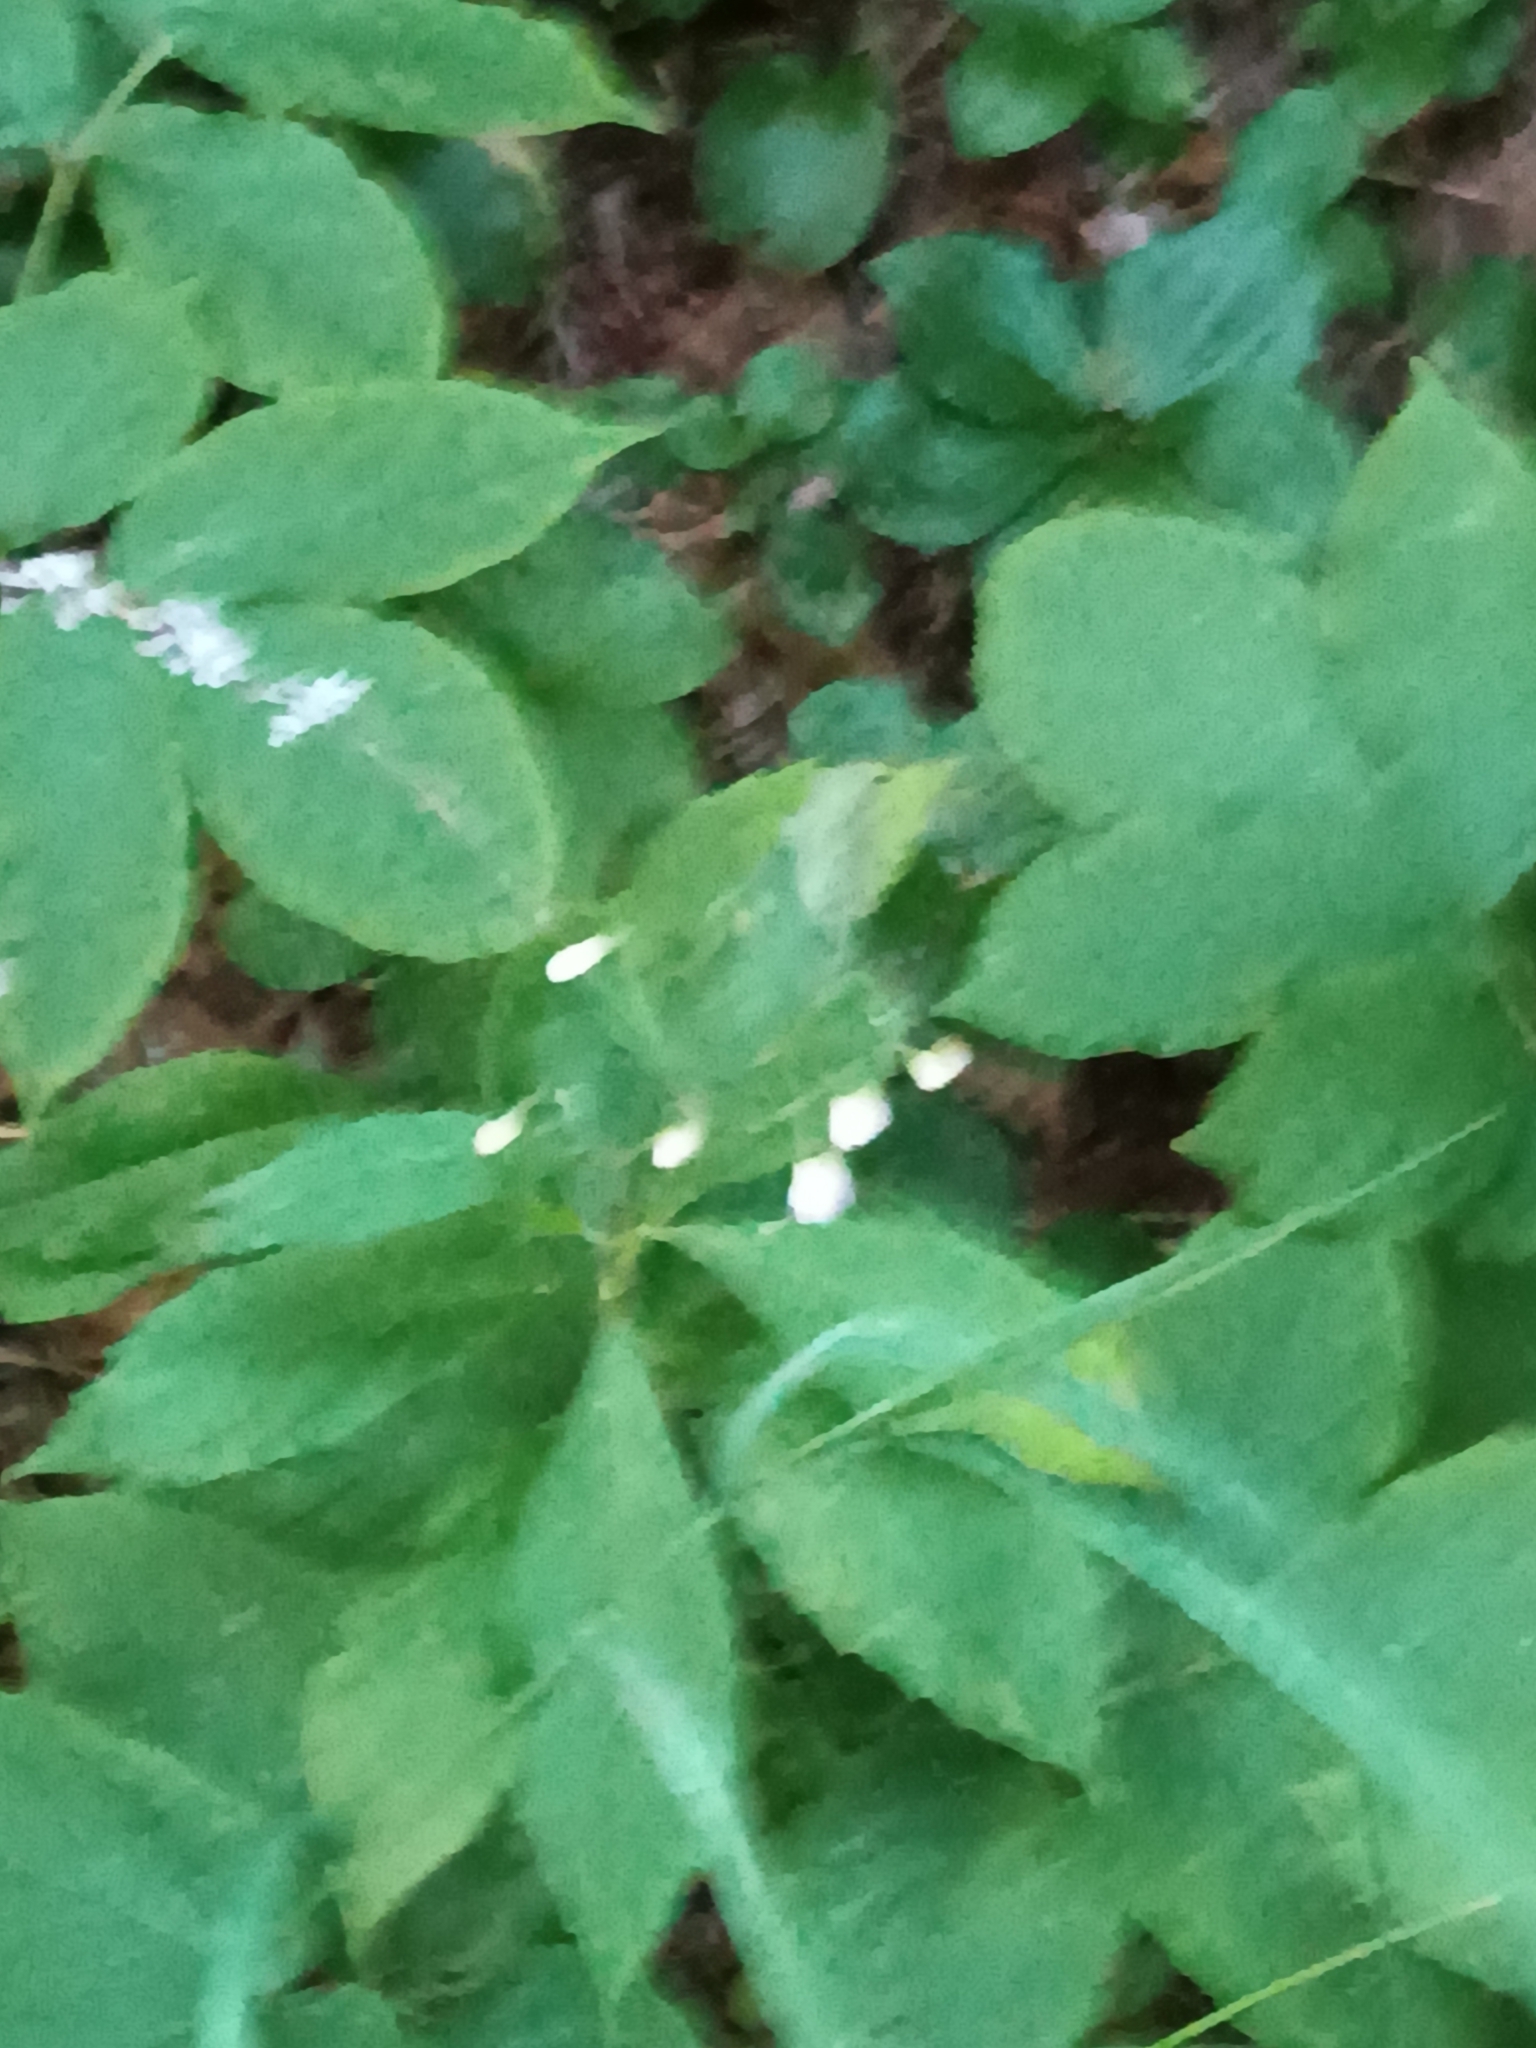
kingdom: Plantae
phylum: Tracheophyta
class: Magnoliopsida
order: Asterales
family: Asteraceae
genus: Oclemena
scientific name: Oclemena acuminata
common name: Mountain aster
